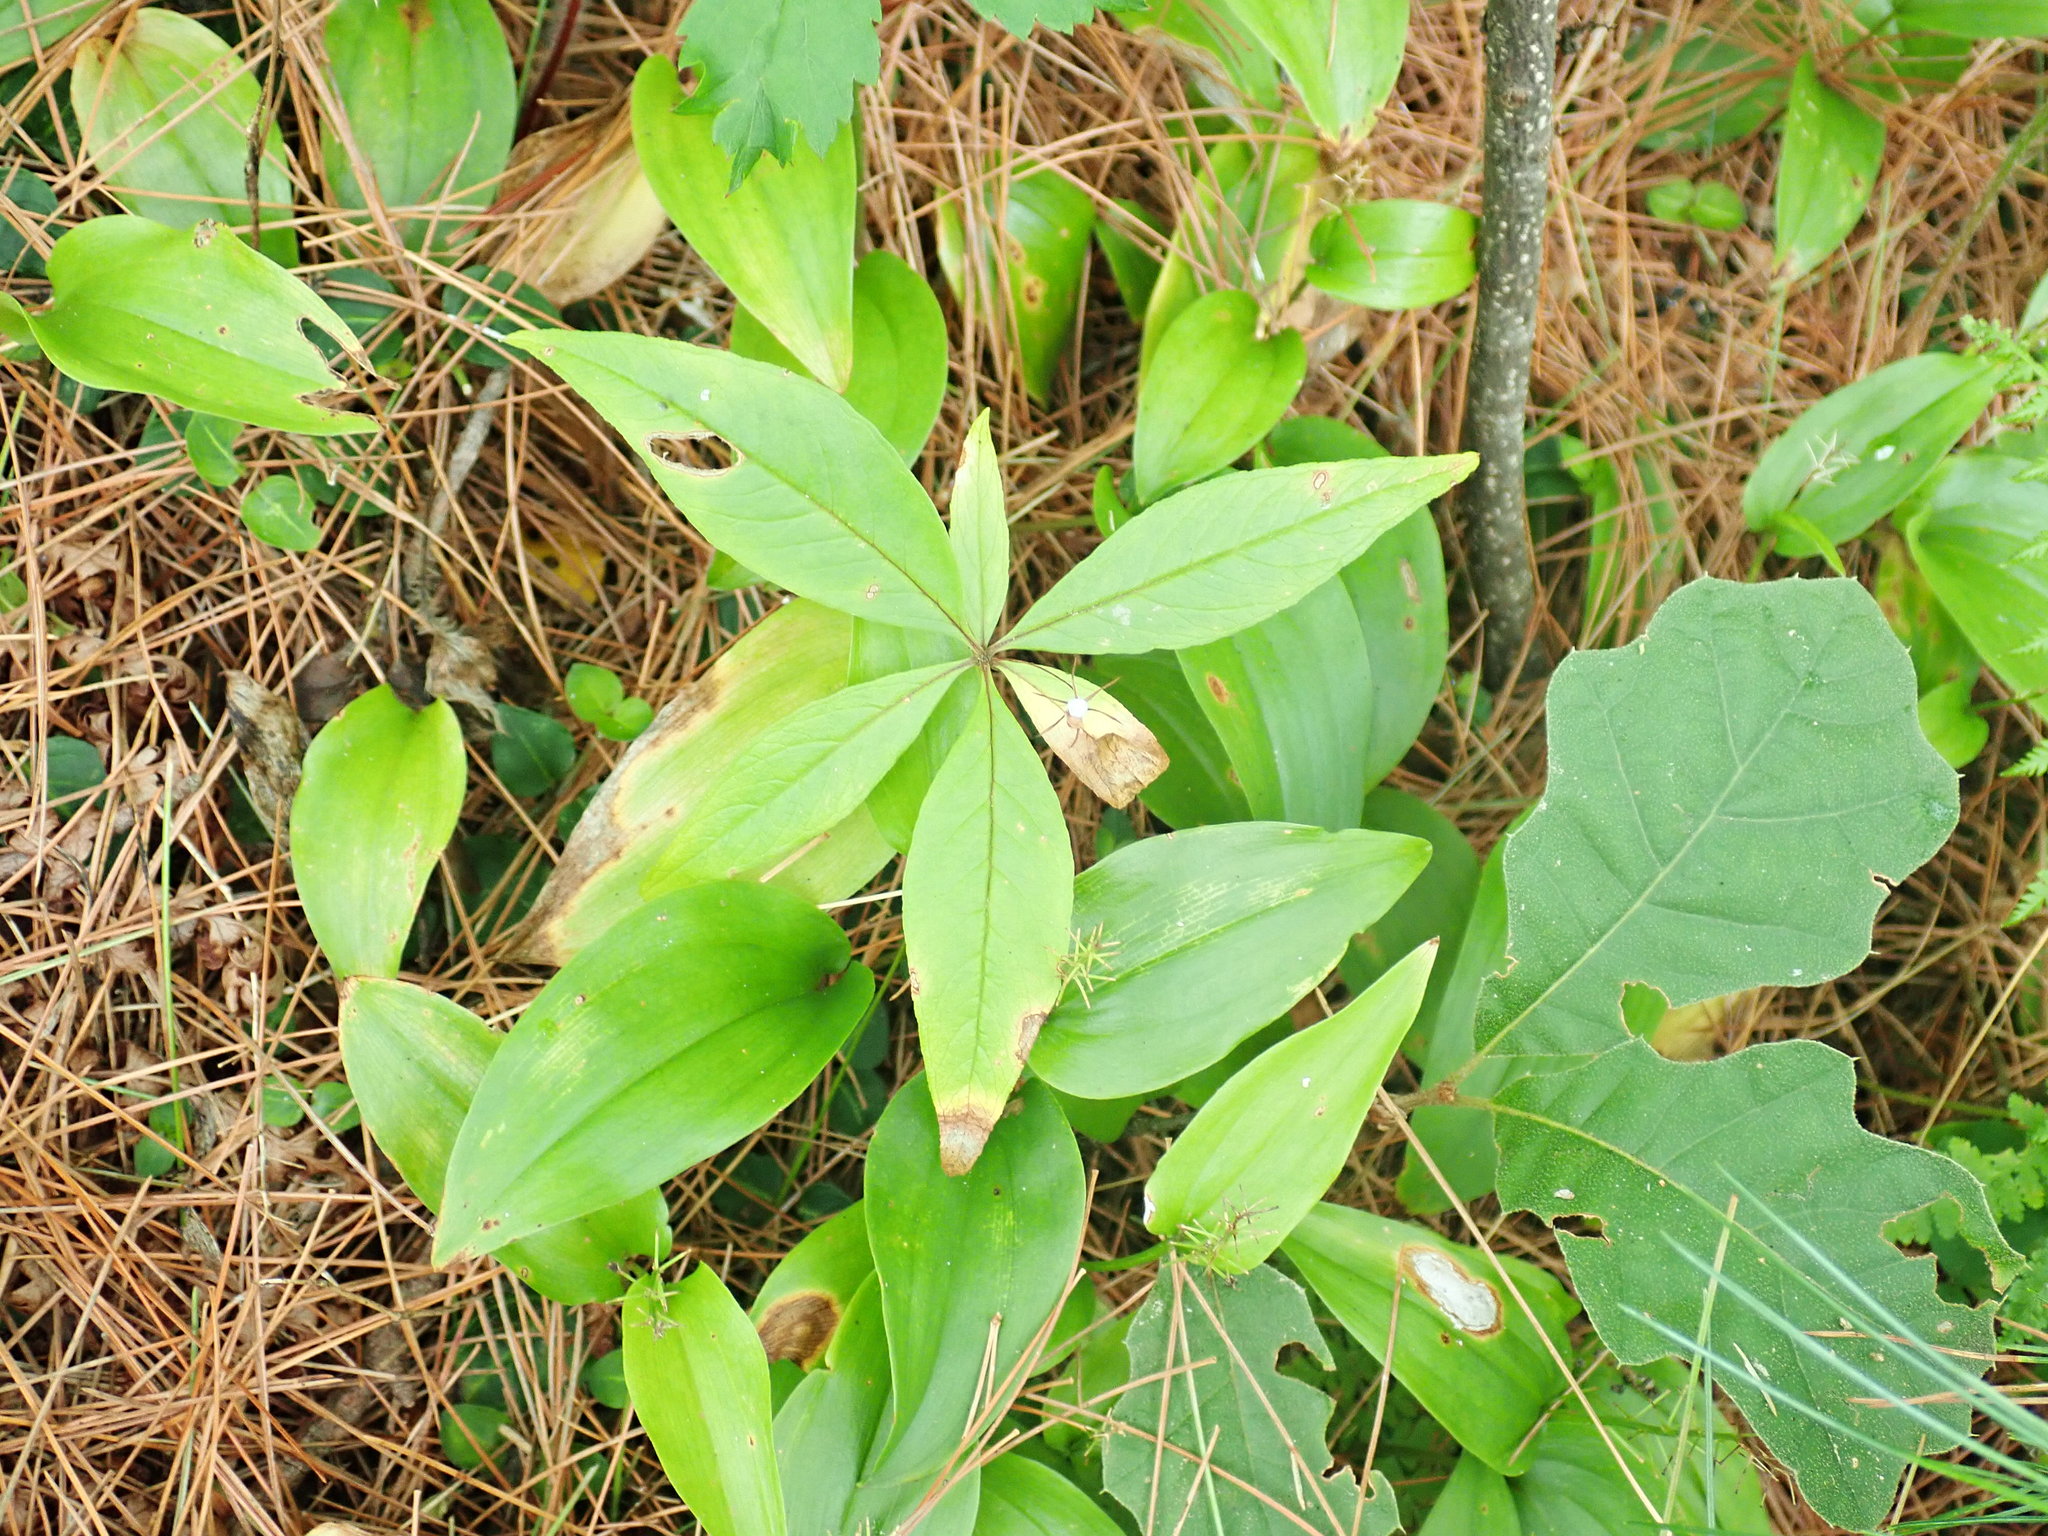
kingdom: Plantae
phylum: Tracheophyta
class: Magnoliopsida
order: Ericales
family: Primulaceae
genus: Lysimachia
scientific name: Lysimachia borealis
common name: American starflower
